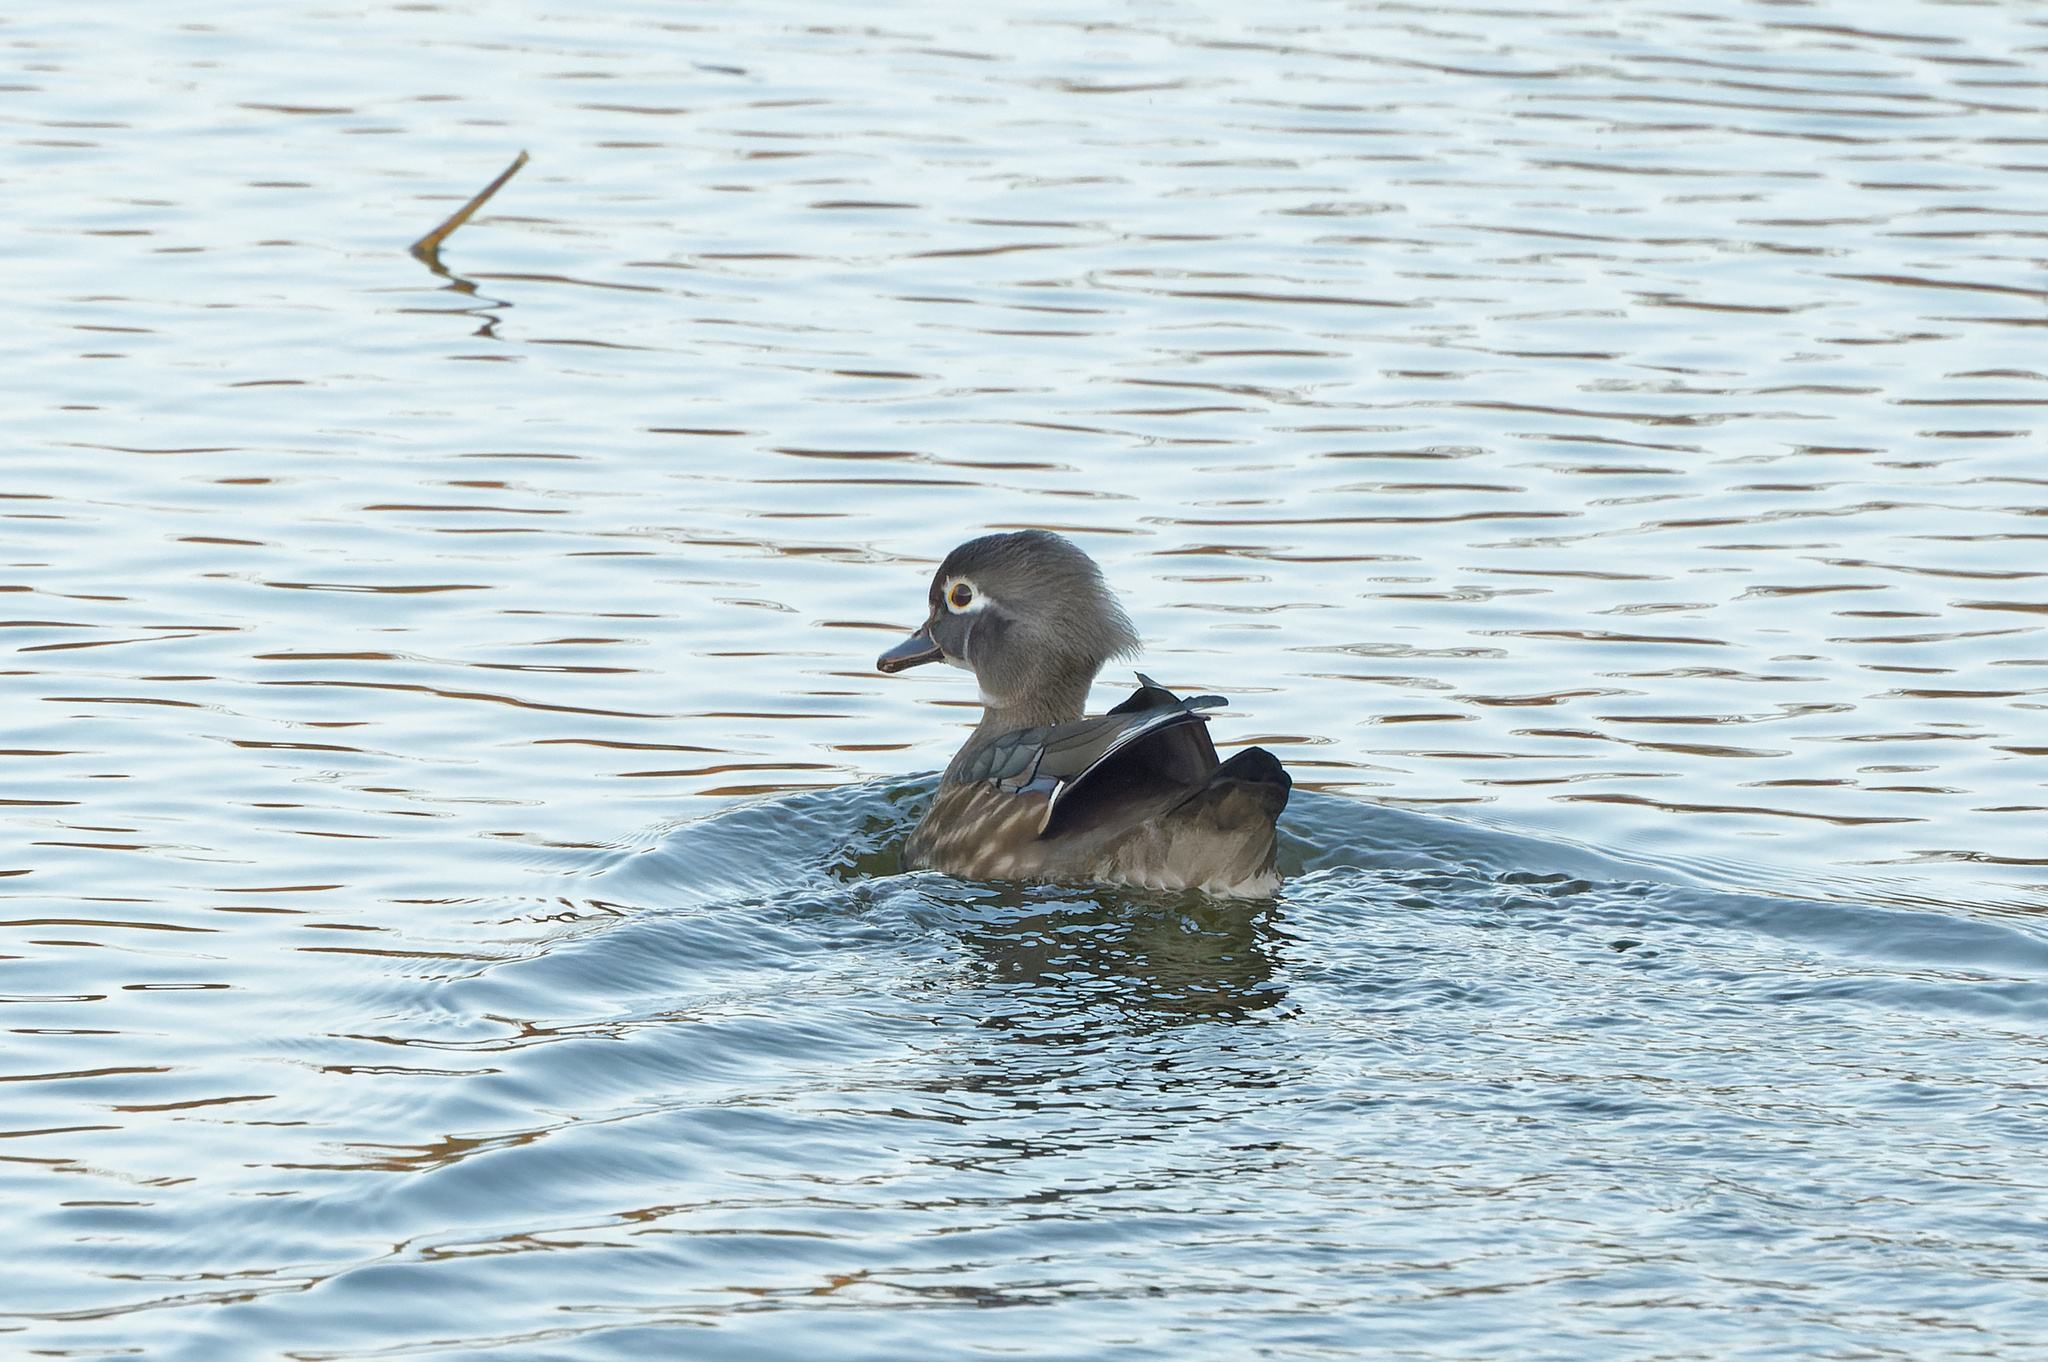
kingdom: Animalia
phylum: Chordata
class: Aves
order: Anseriformes
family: Anatidae
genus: Aix
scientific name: Aix sponsa
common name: Wood duck
